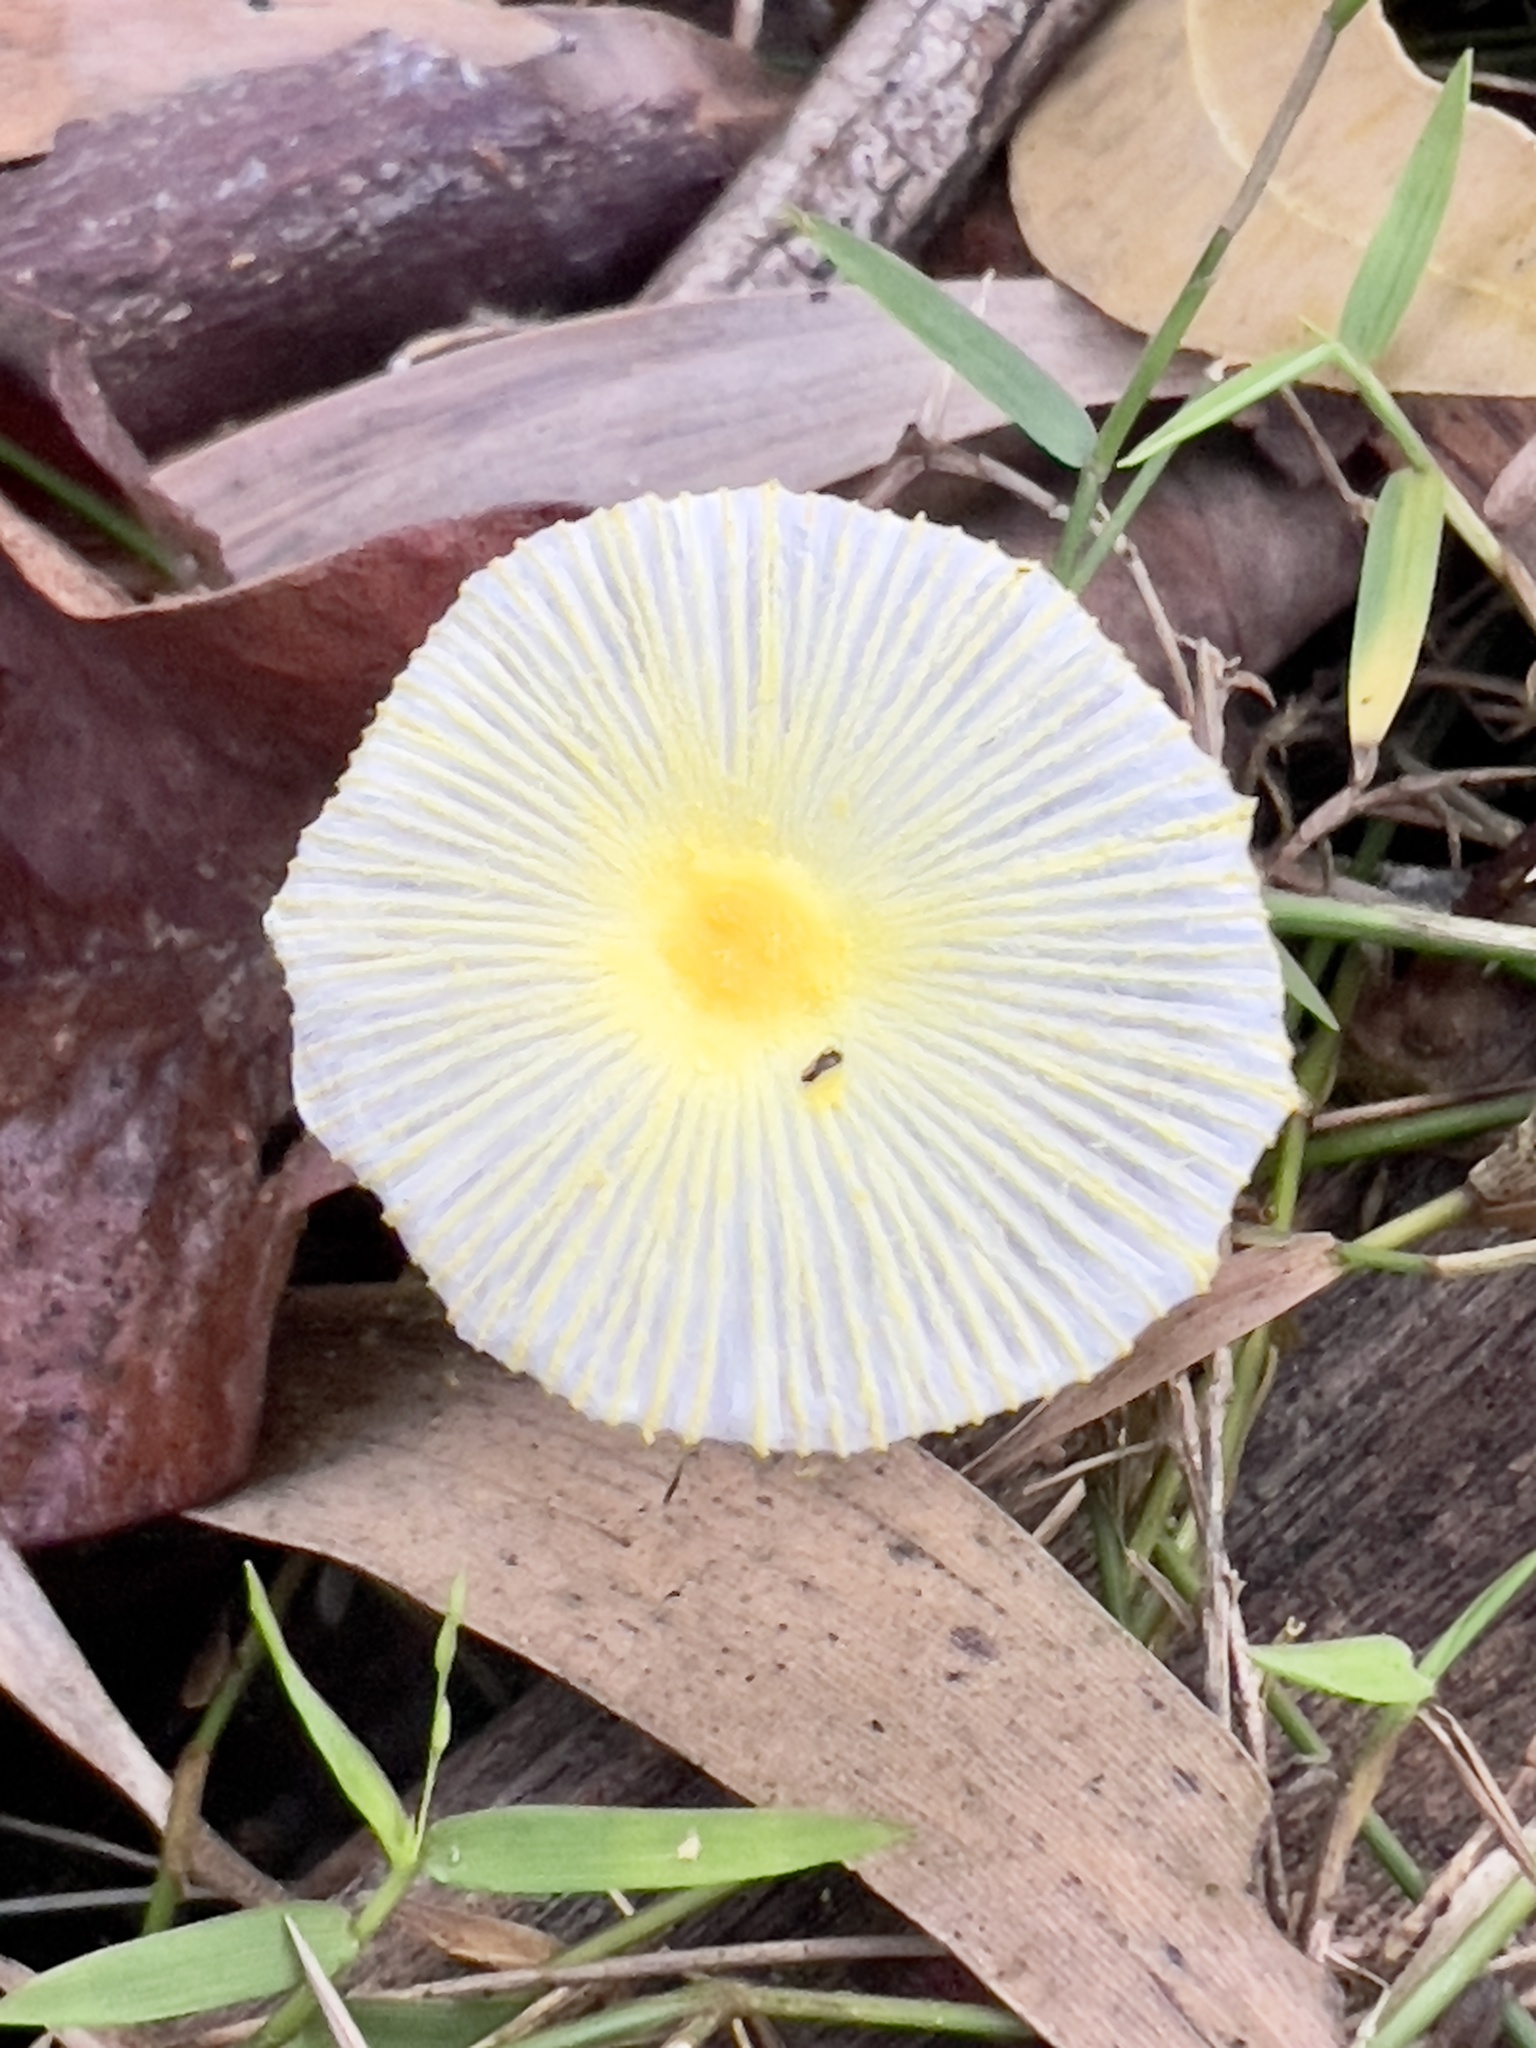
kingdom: Fungi
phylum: Basidiomycota
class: Agaricomycetes
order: Agaricales
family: Agaricaceae
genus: Leucocoprinus
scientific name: Leucocoprinus fragilissimus
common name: Fragile dapperling
